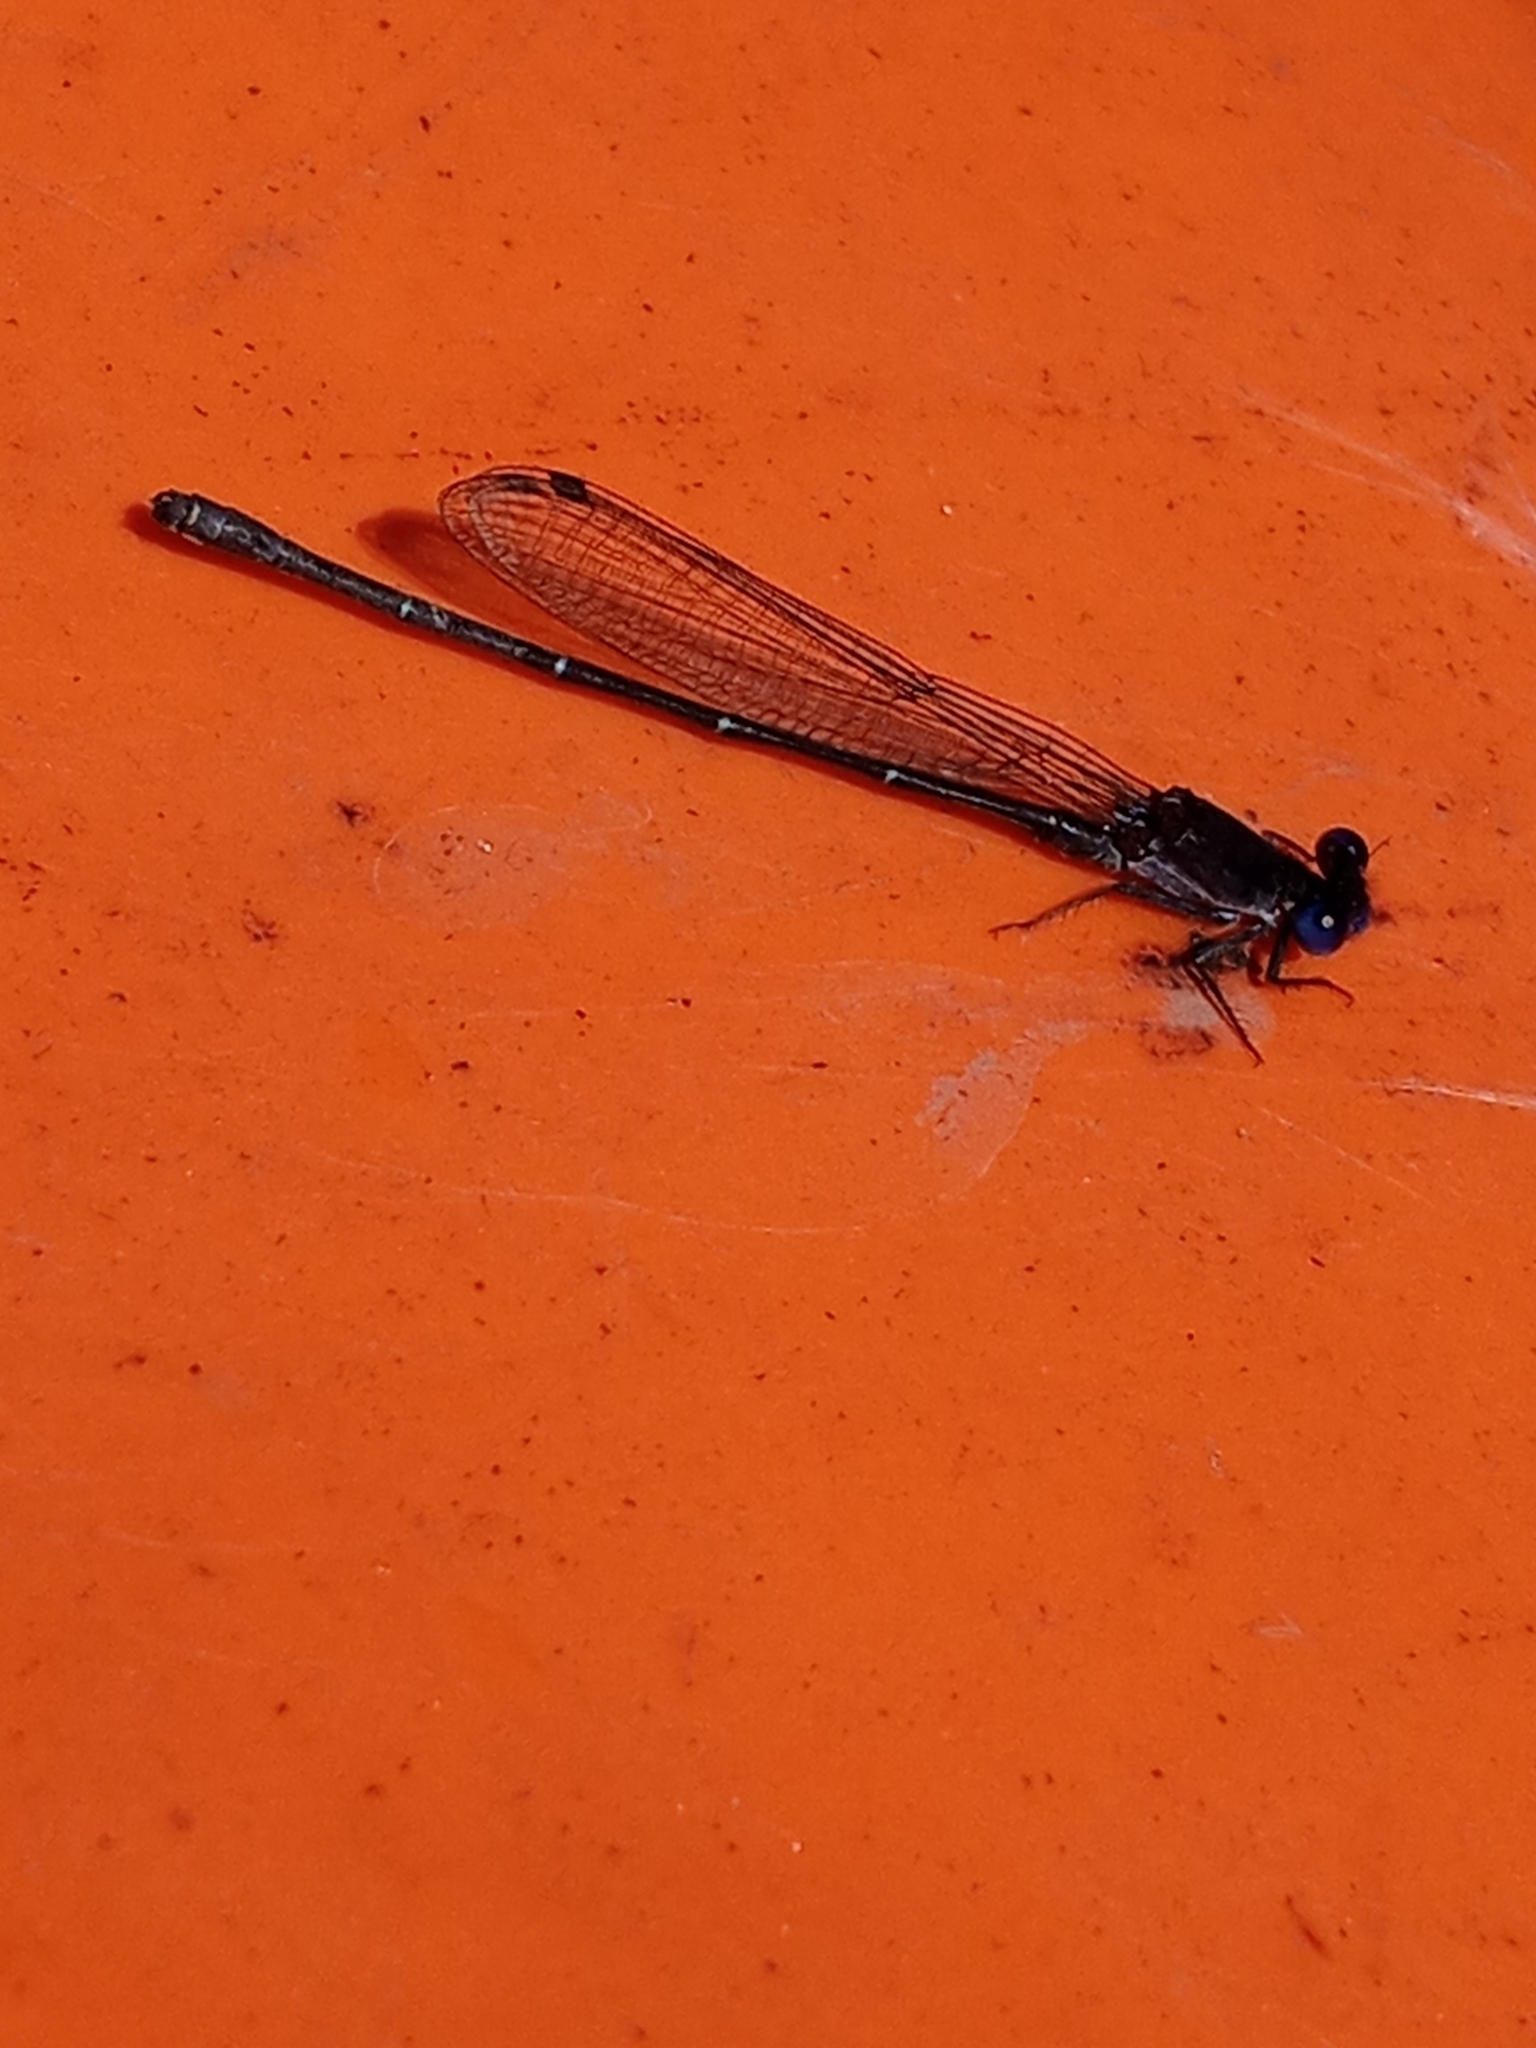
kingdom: Animalia
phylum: Arthropoda
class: Insecta
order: Odonata
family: Coenagrionidae
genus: Argia
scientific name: Argia translata
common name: Dusky dancer
